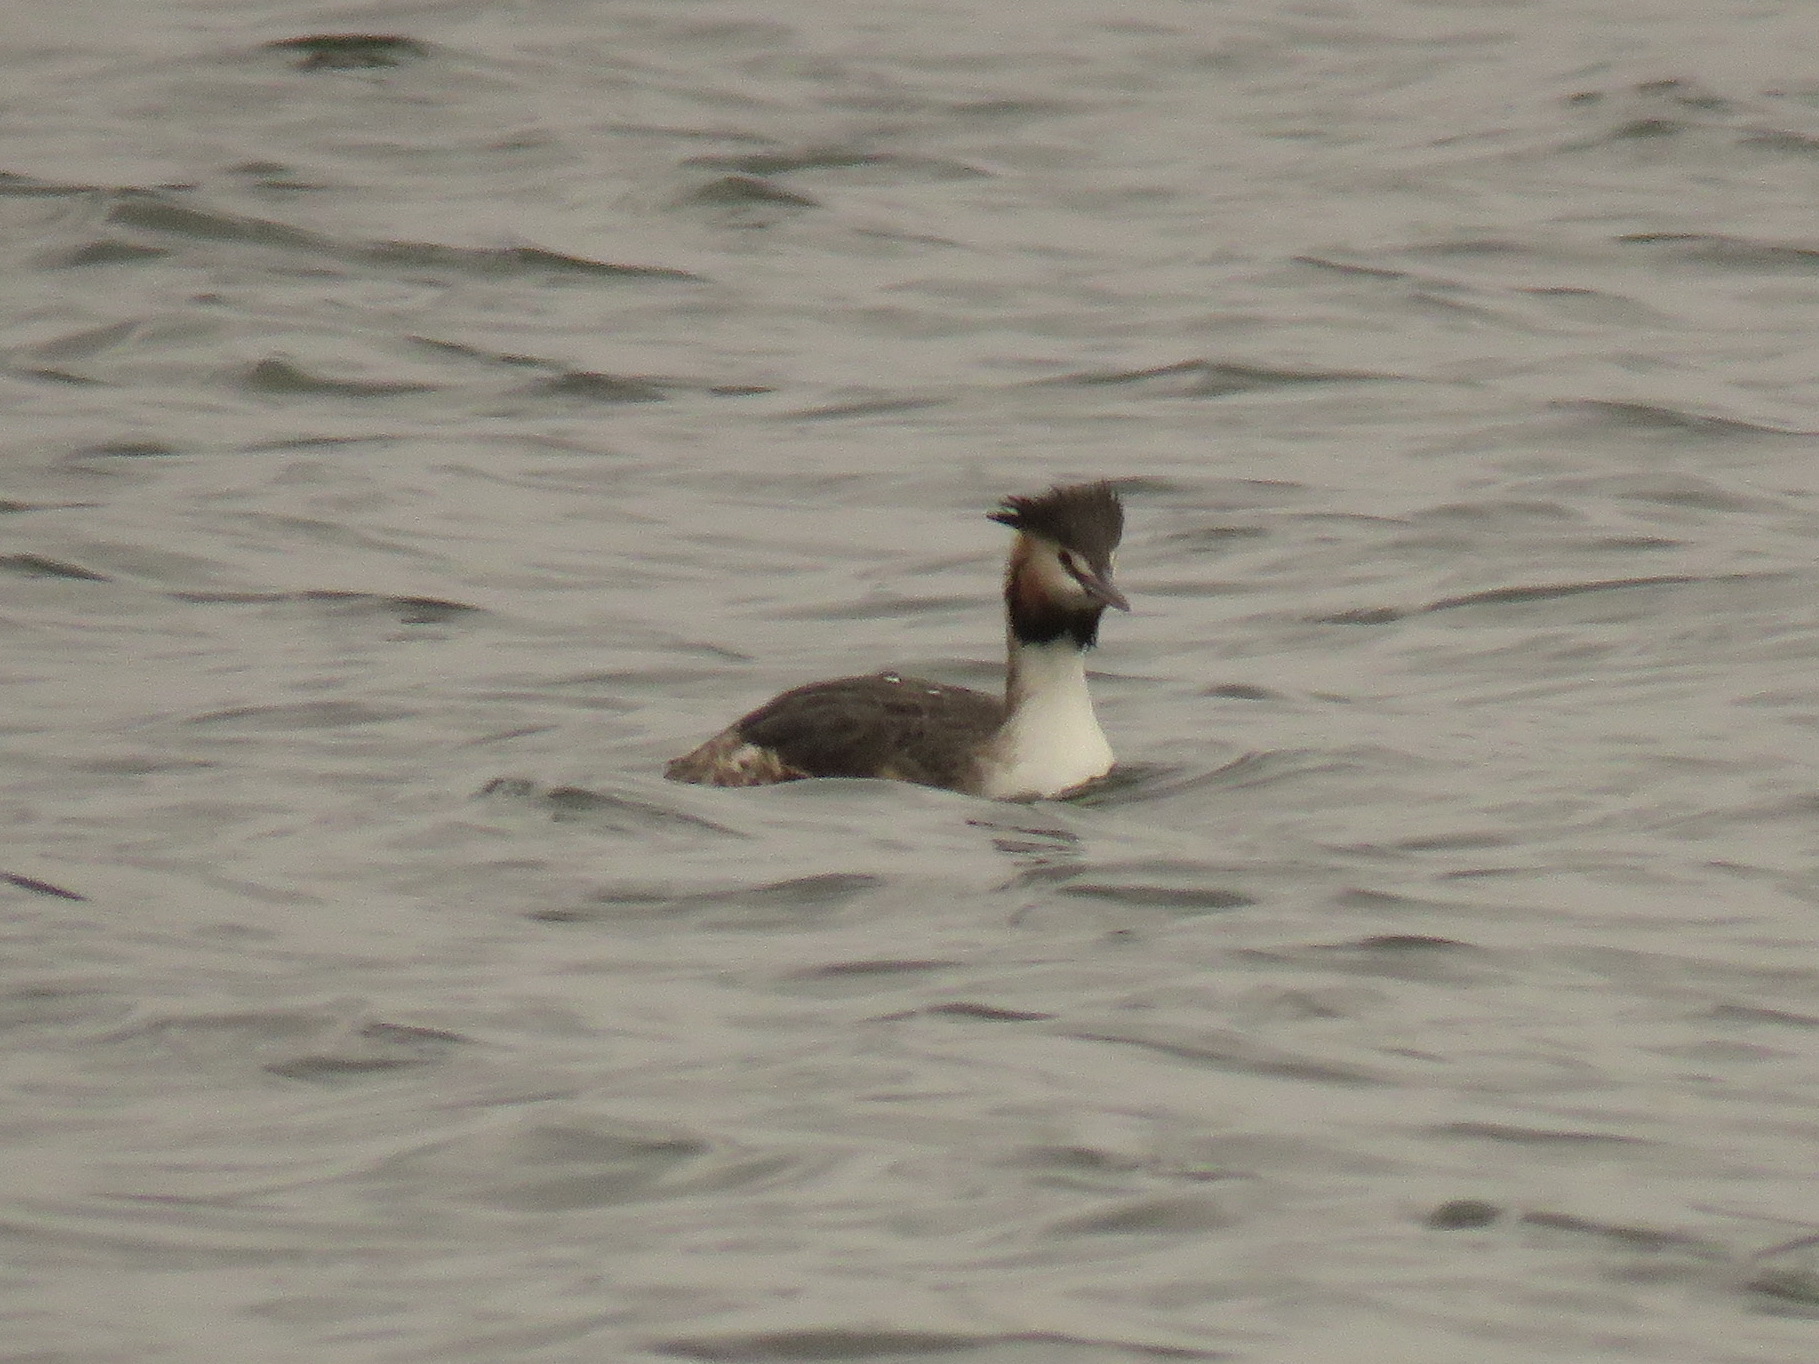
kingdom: Animalia
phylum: Chordata
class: Aves
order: Podicipediformes
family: Podicipedidae
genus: Podiceps
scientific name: Podiceps cristatus
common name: Great crested grebe
